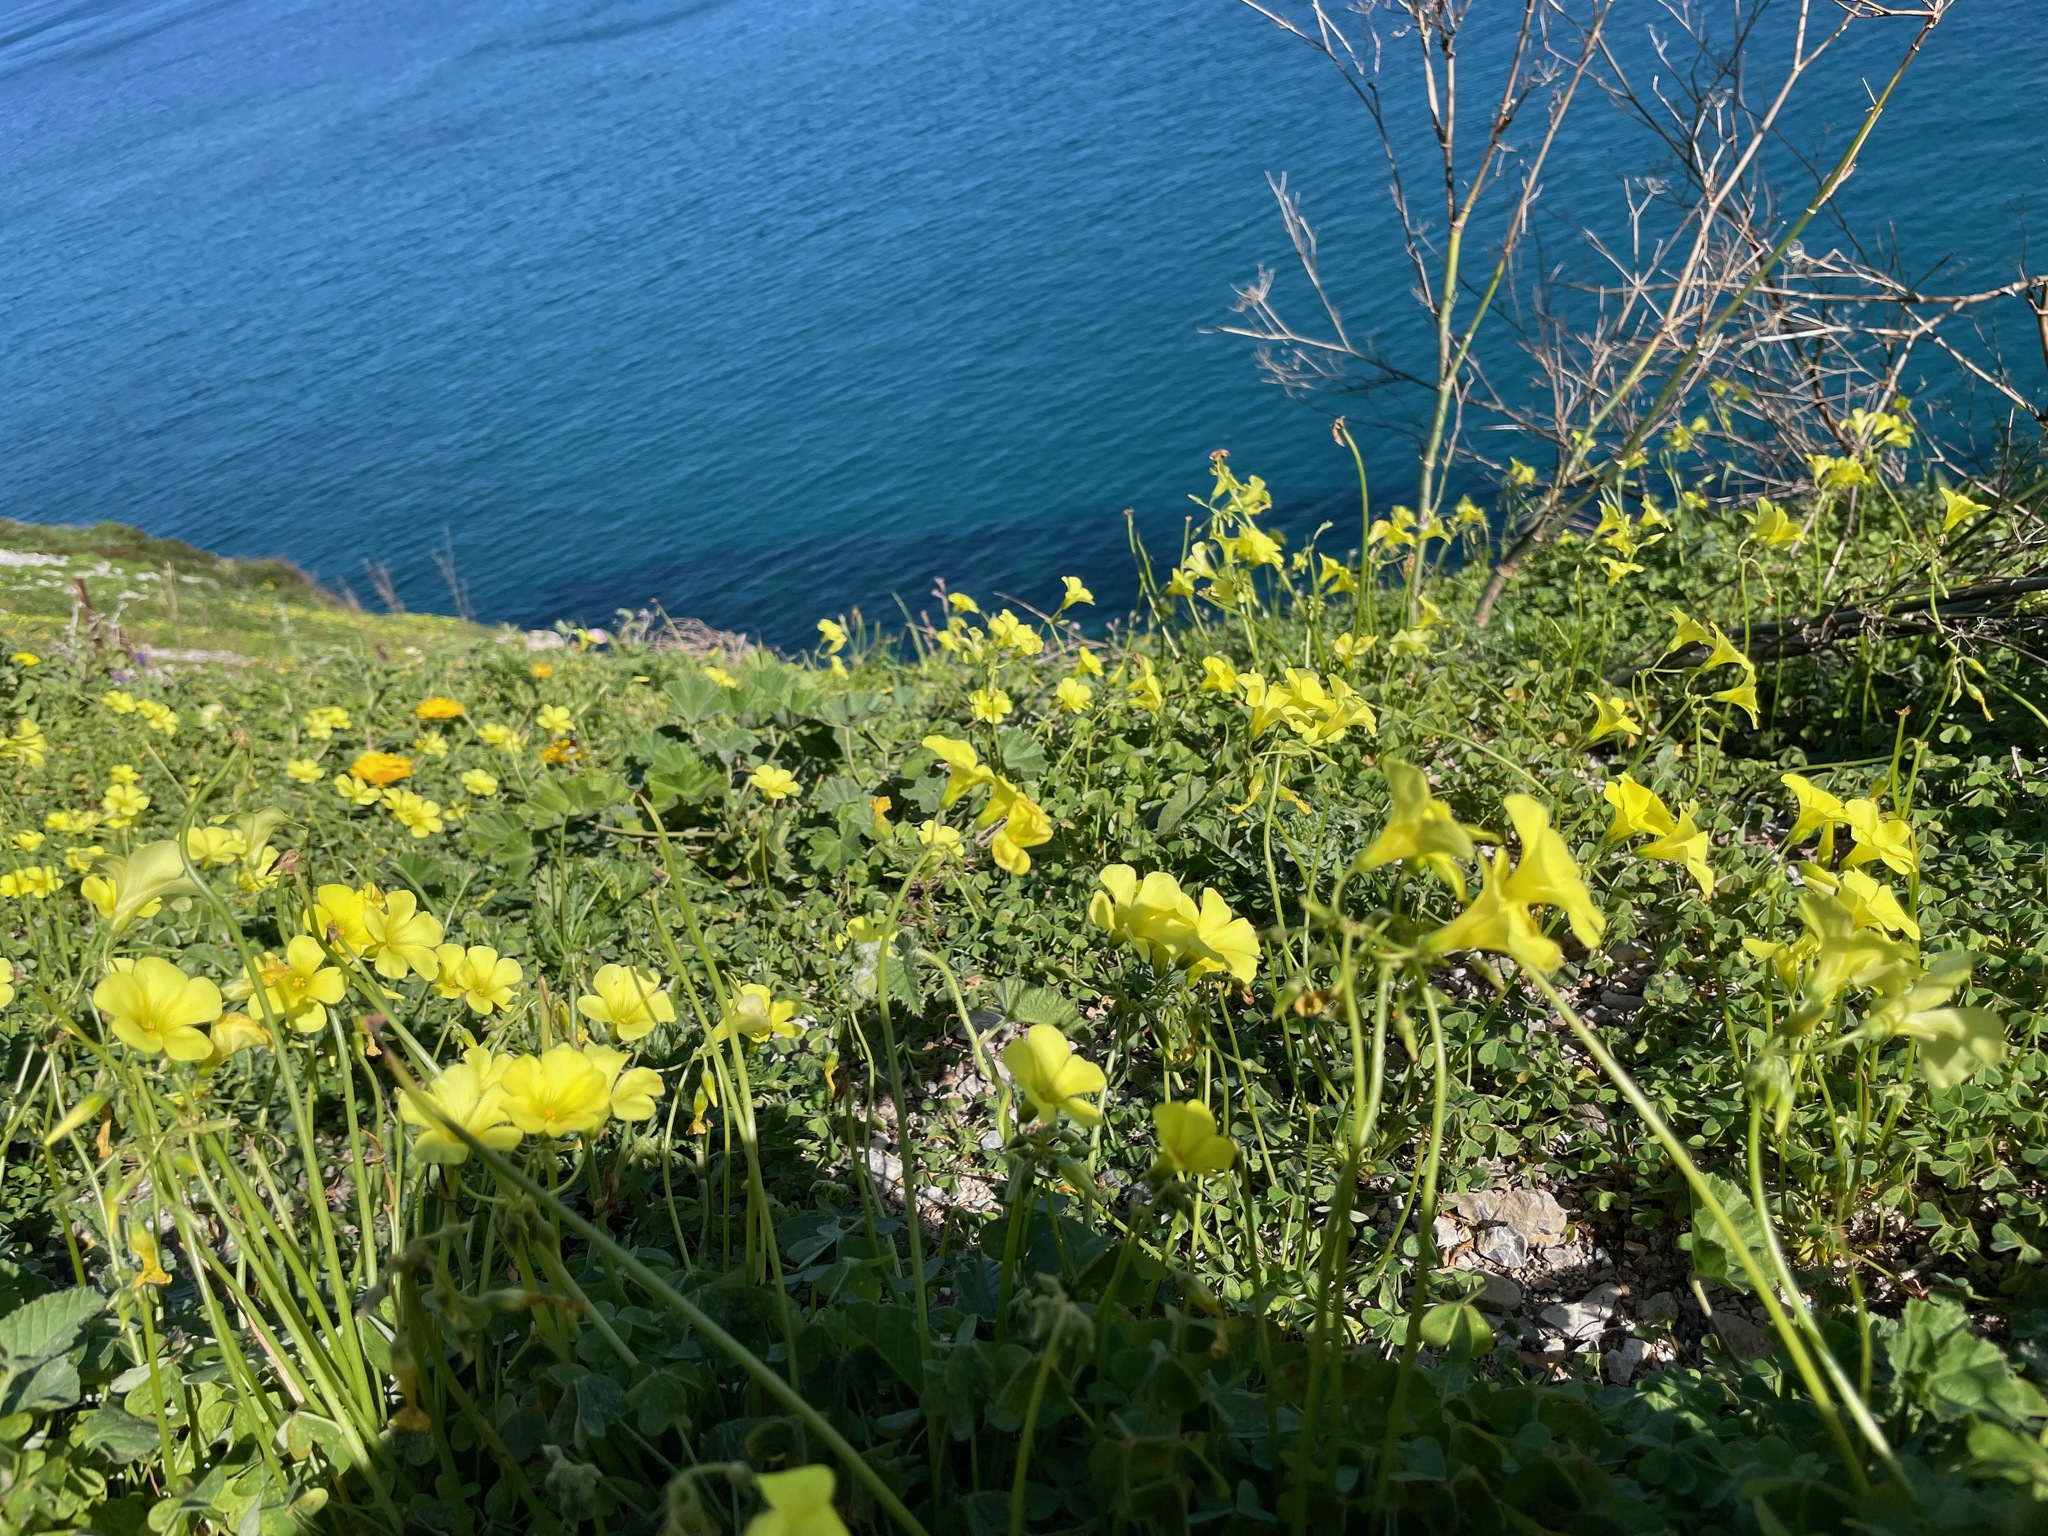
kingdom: Plantae
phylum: Tracheophyta
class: Magnoliopsida
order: Oxalidales
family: Oxalidaceae
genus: Oxalis
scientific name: Oxalis pes-caprae
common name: Bermuda-buttercup
